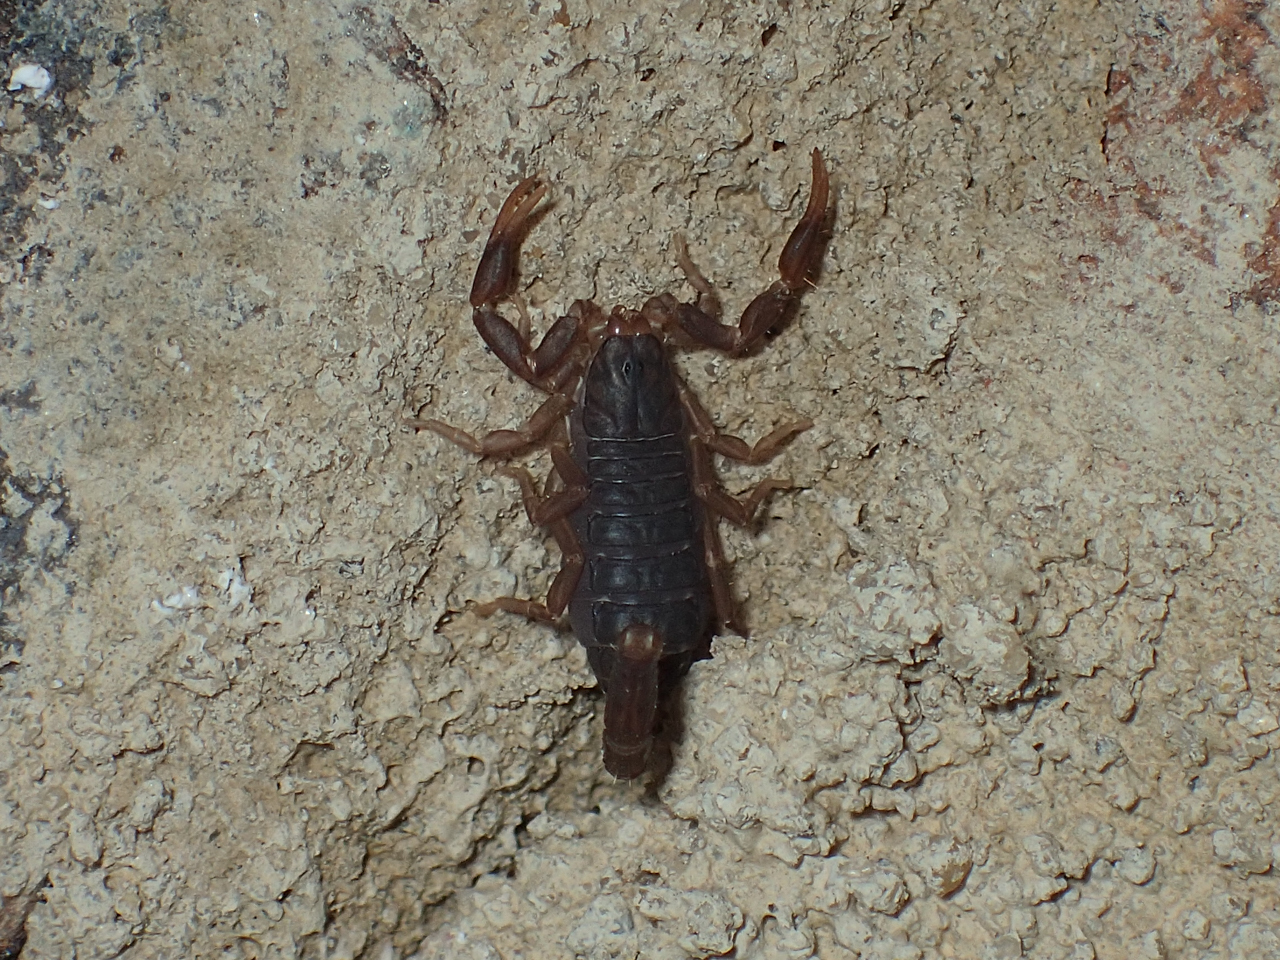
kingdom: Animalia
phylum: Arthropoda
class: Arachnida
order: Scorpiones
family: Vaejovidae
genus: Vaejovis
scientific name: Vaejovis carolinianus
